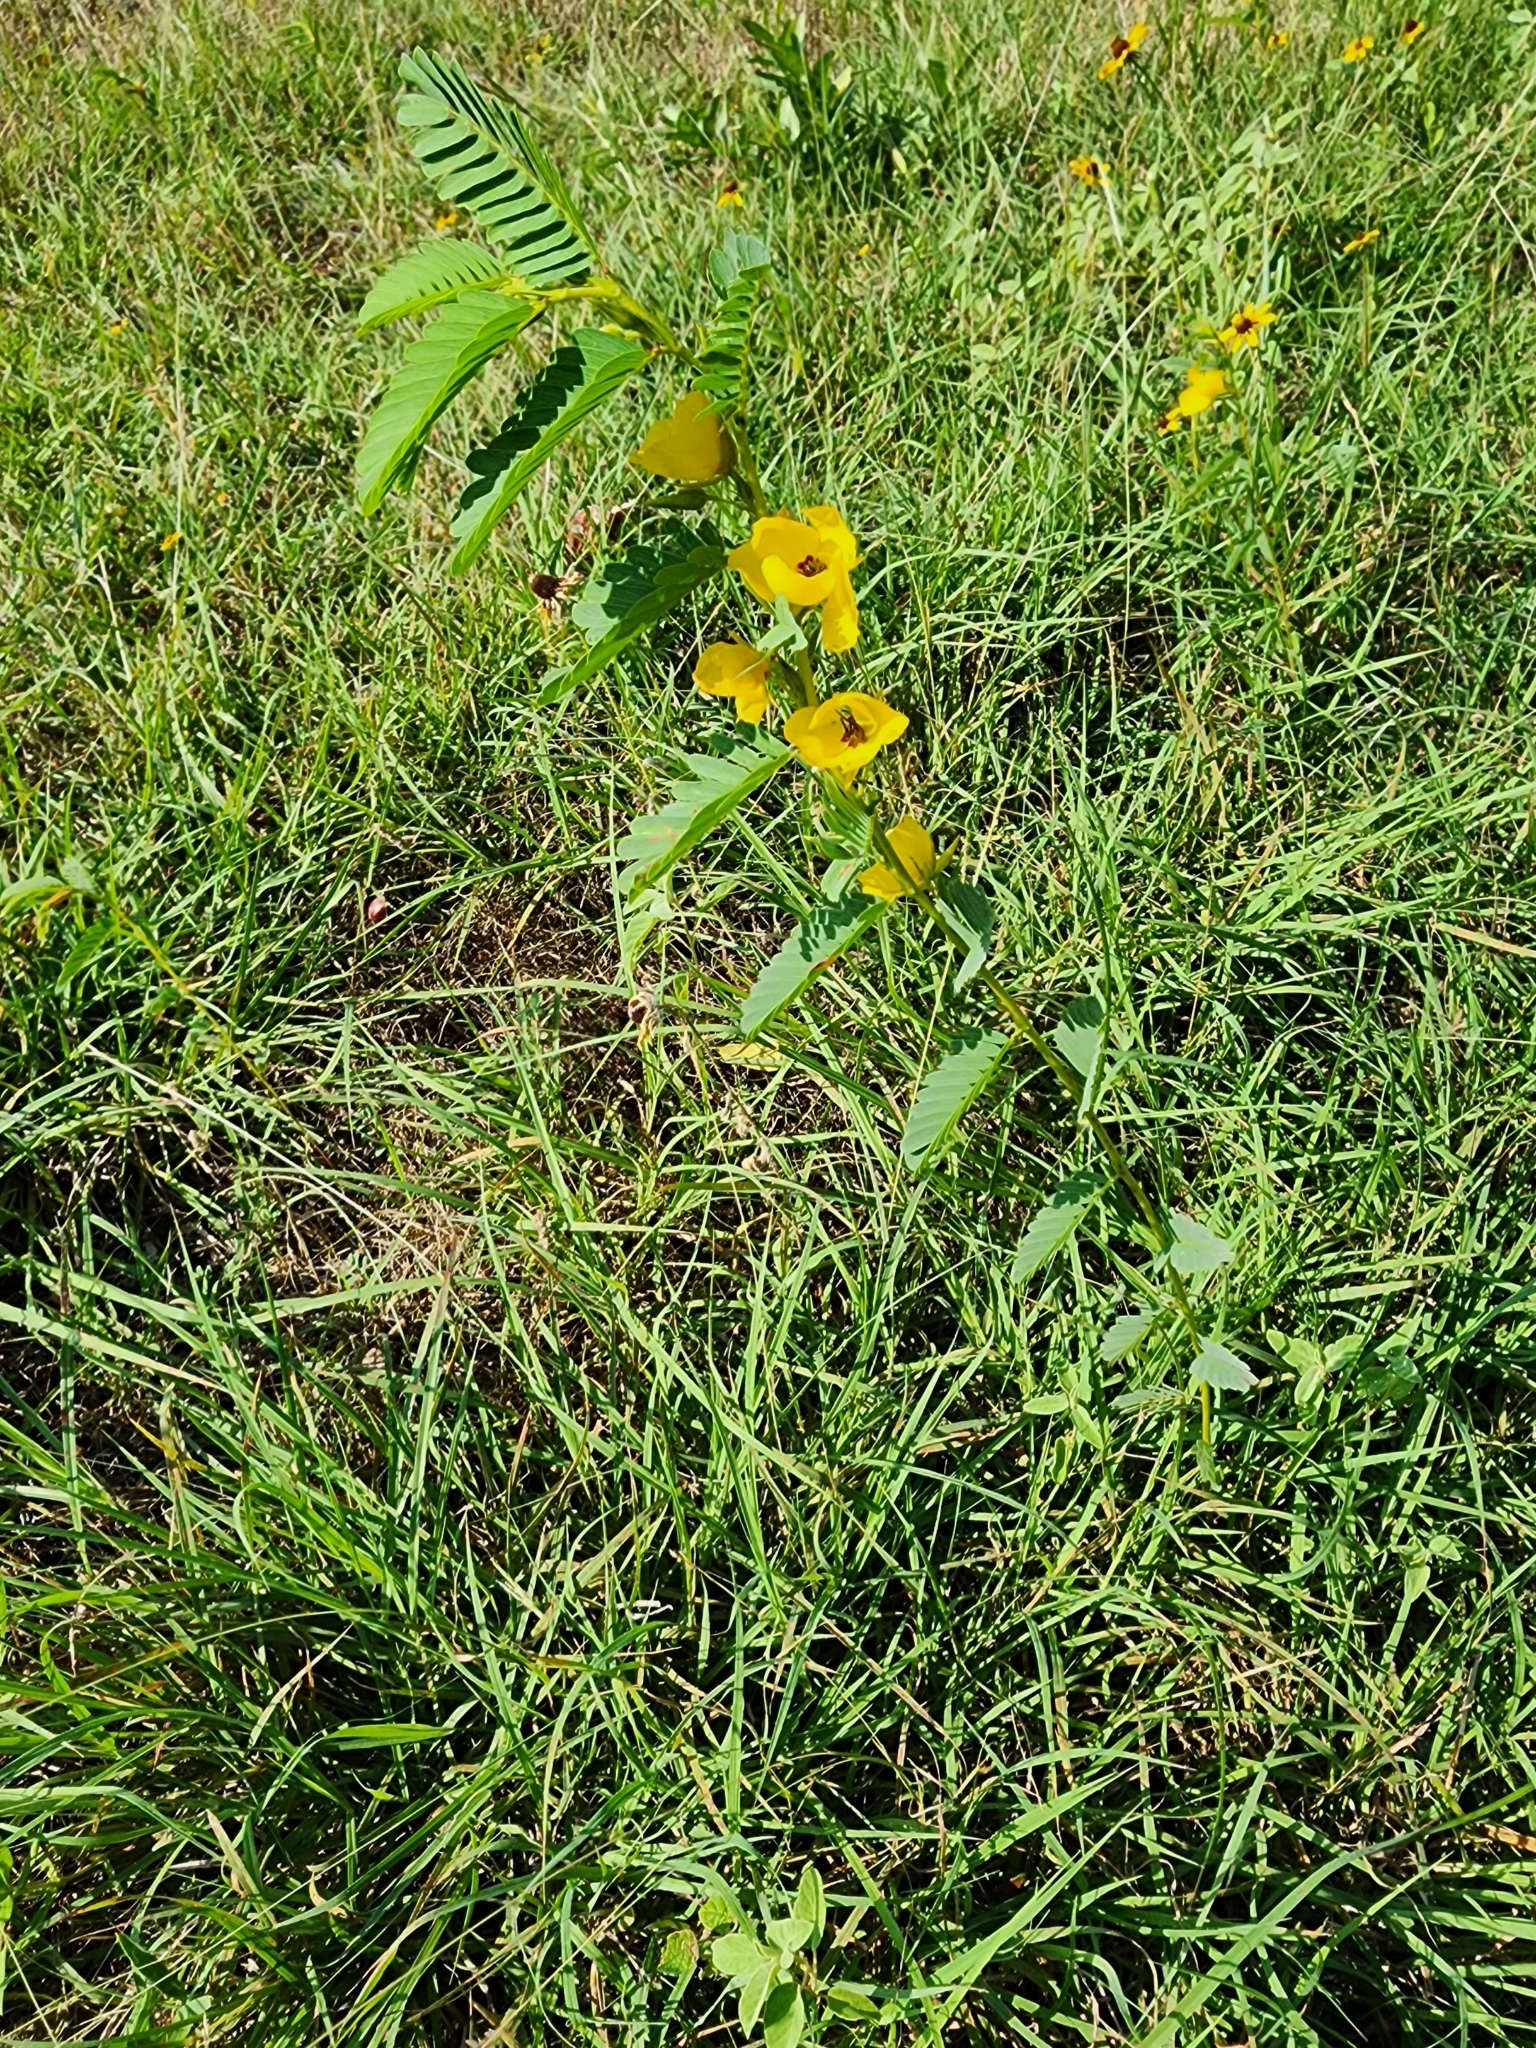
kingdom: Plantae
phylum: Tracheophyta
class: Magnoliopsida
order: Fabales
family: Fabaceae
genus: Chamaecrista
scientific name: Chamaecrista fasciculata
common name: Golden cassia
